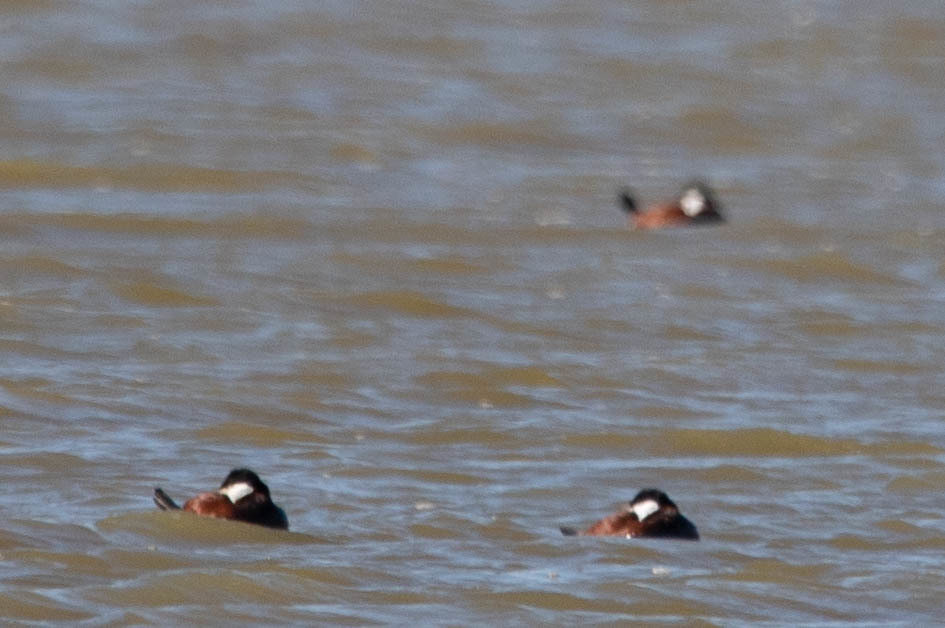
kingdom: Animalia
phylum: Chordata
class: Aves
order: Anseriformes
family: Anatidae
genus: Oxyura
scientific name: Oxyura jamaicensis
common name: Ruddy duck
